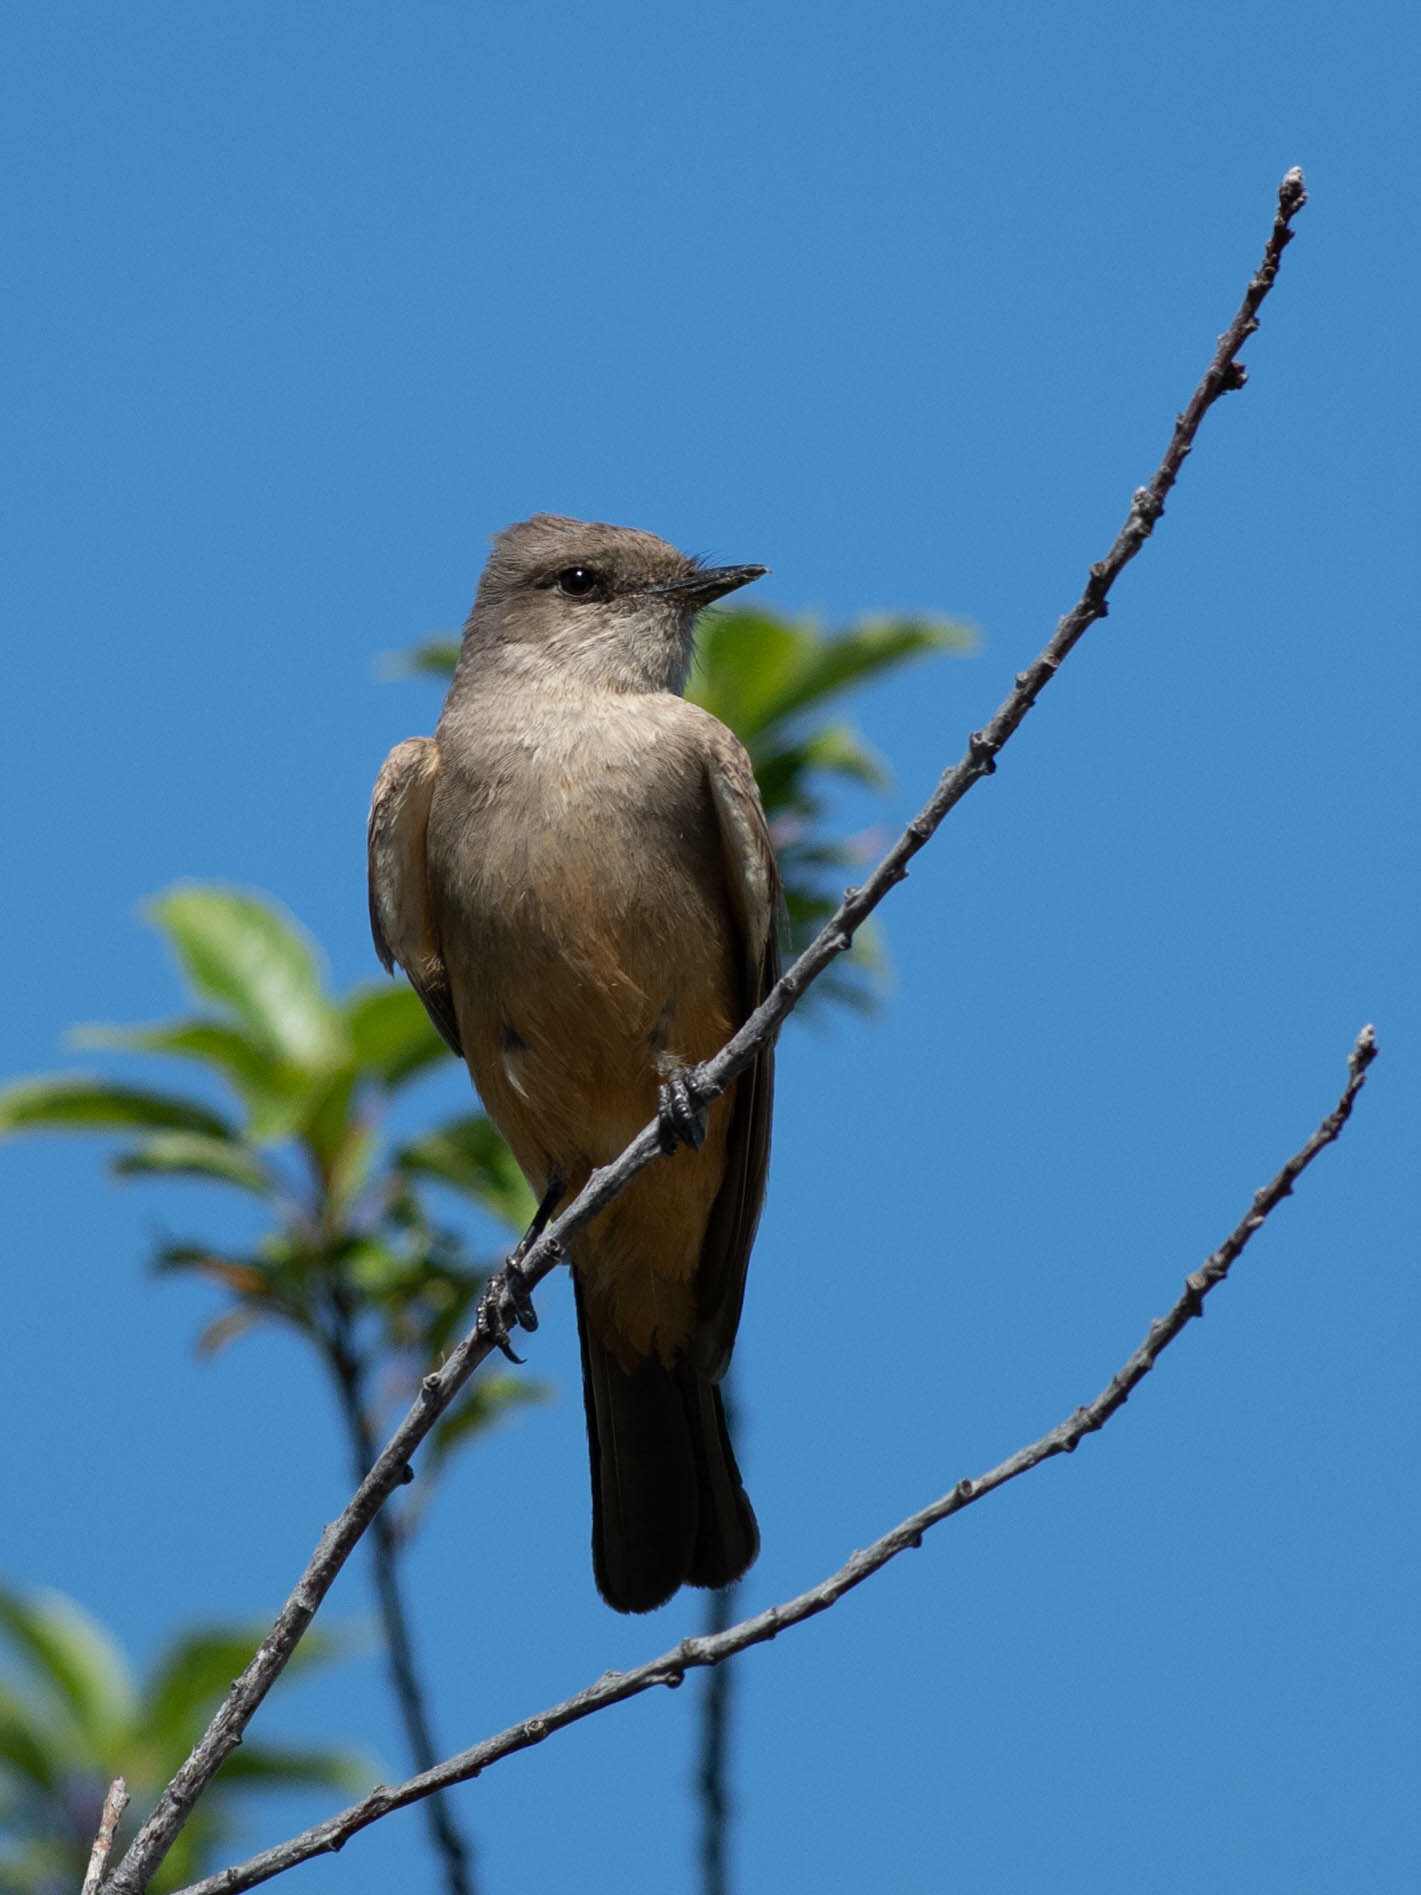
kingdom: Animalia
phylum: Chordata
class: Aves
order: Passeriformes
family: Tyrannidae
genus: Sayornis
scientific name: Sayornis saya
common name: Say's phoebe
